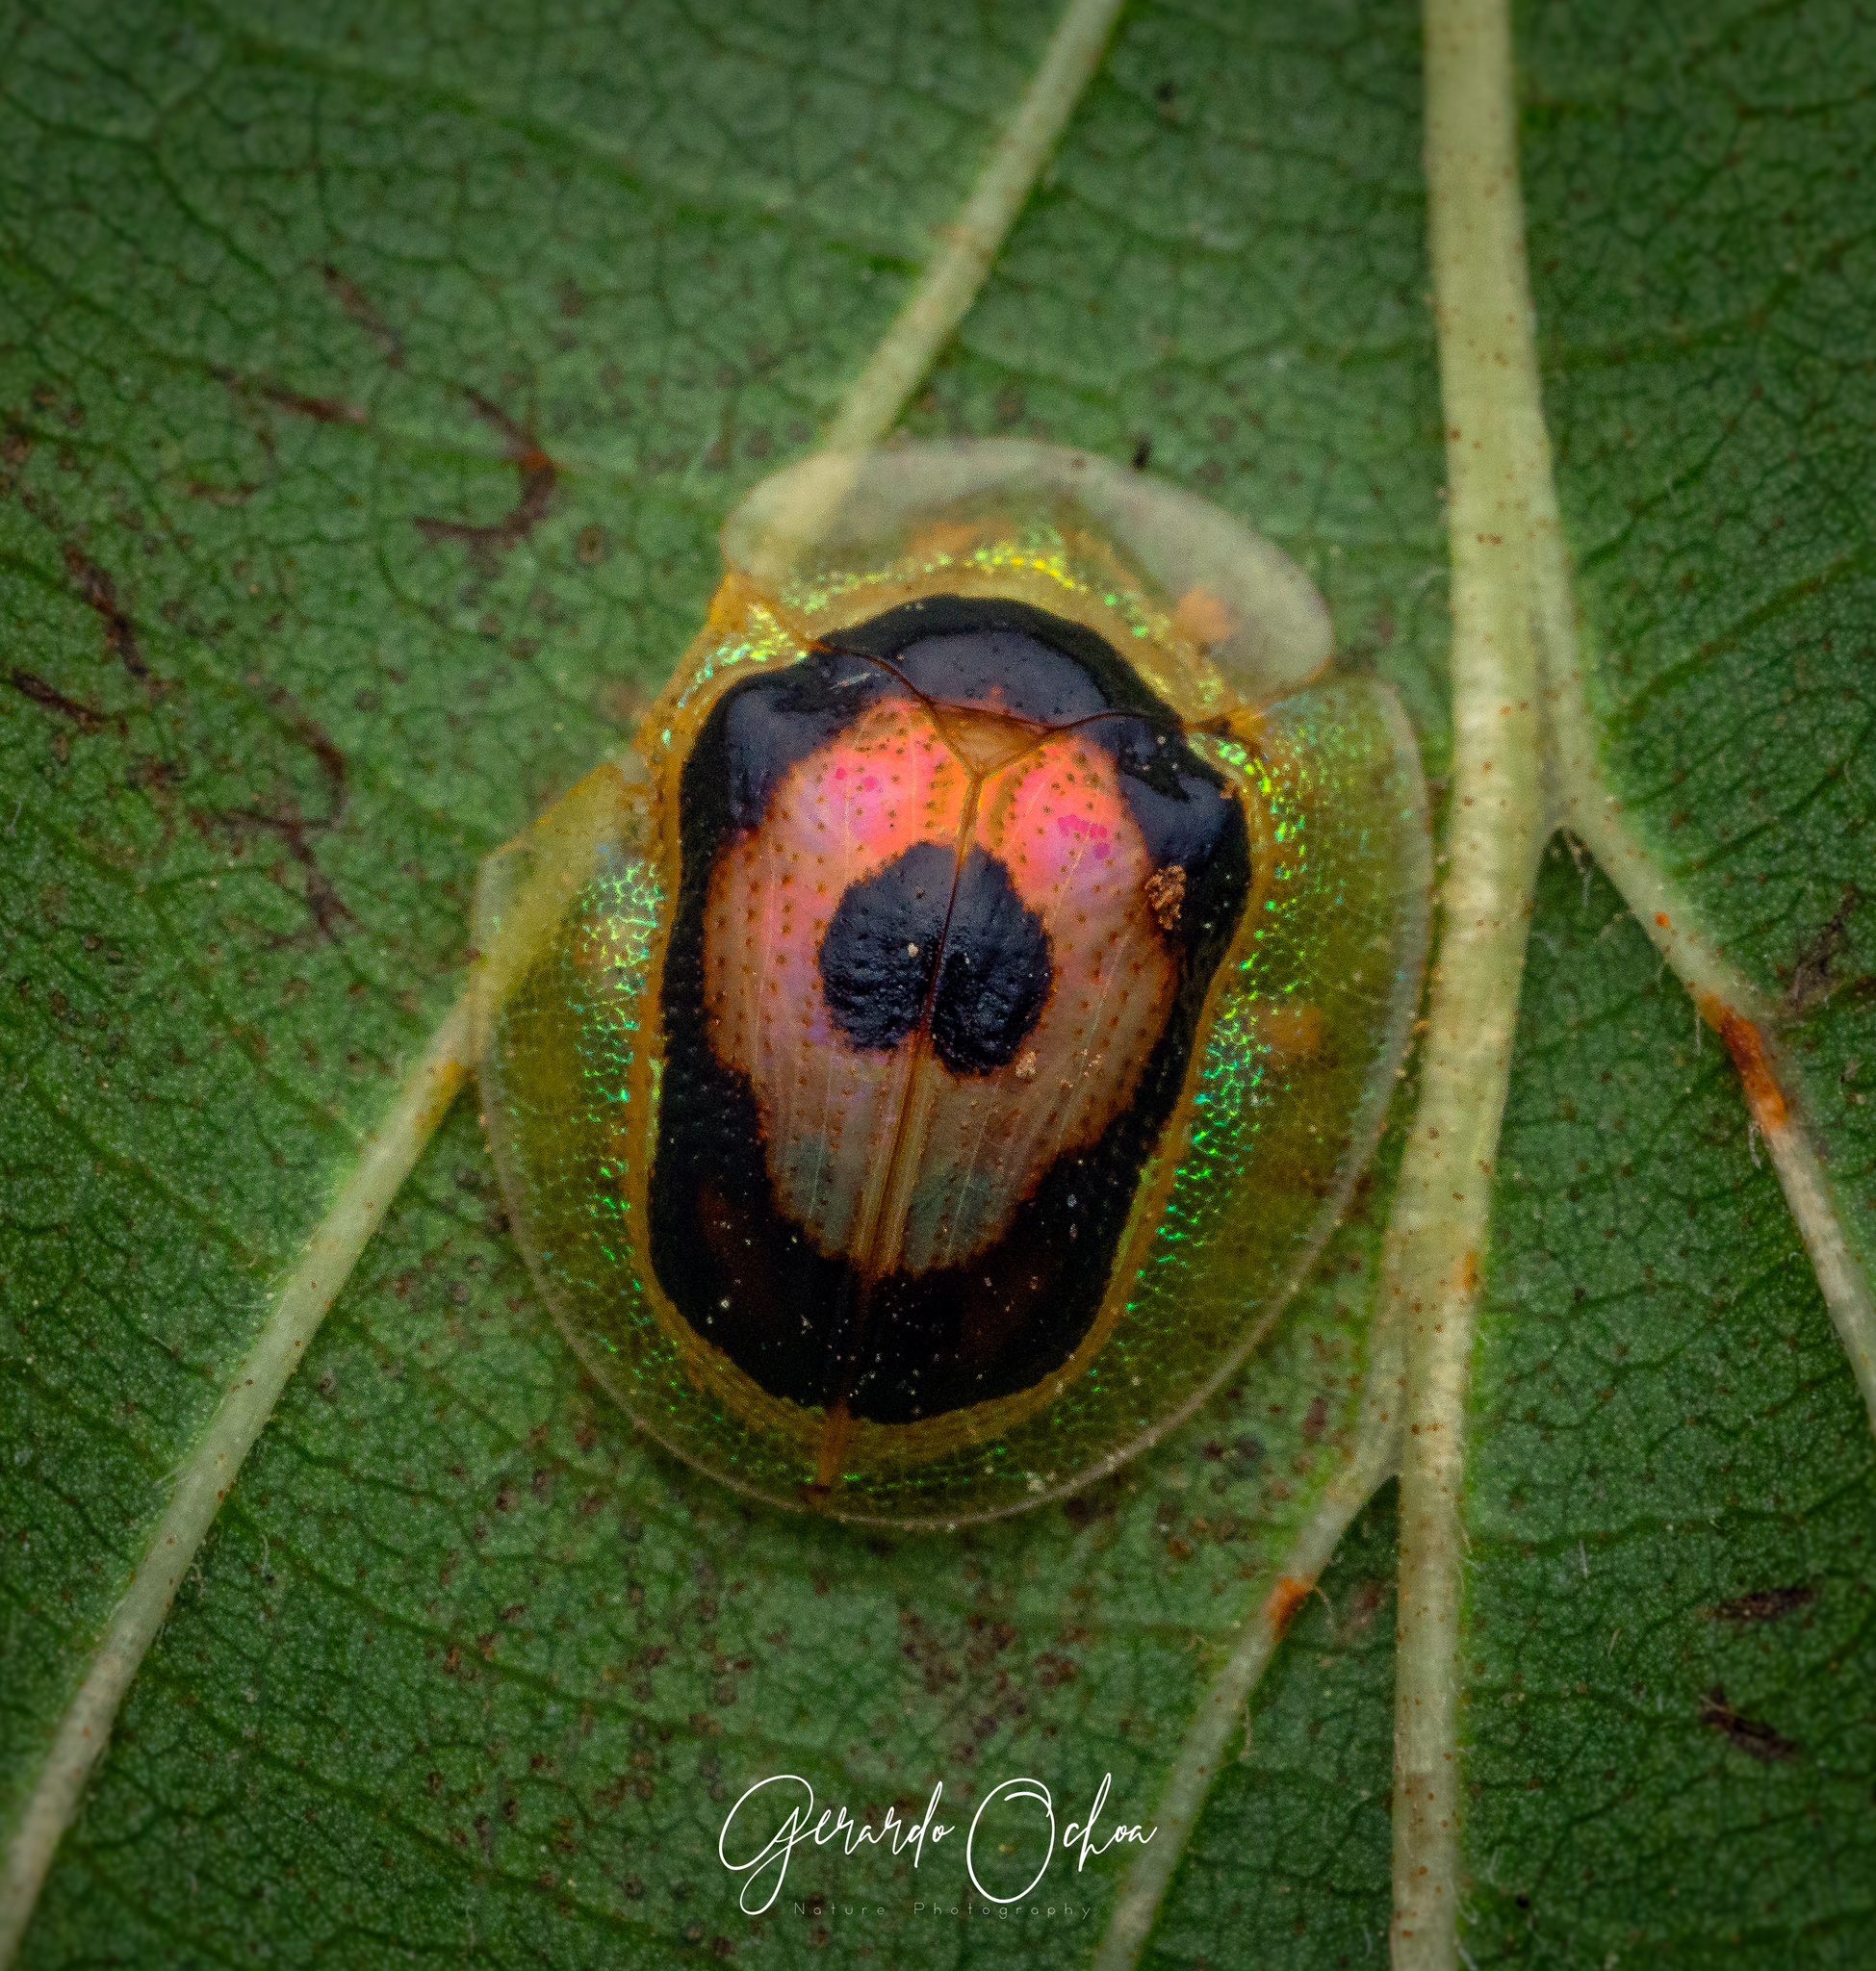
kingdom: Animalia
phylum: Arthropoda
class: Insecta
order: Coleoptera
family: Chrysomelidae
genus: Tapinaspis
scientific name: Tapinaspis wesmaeli
